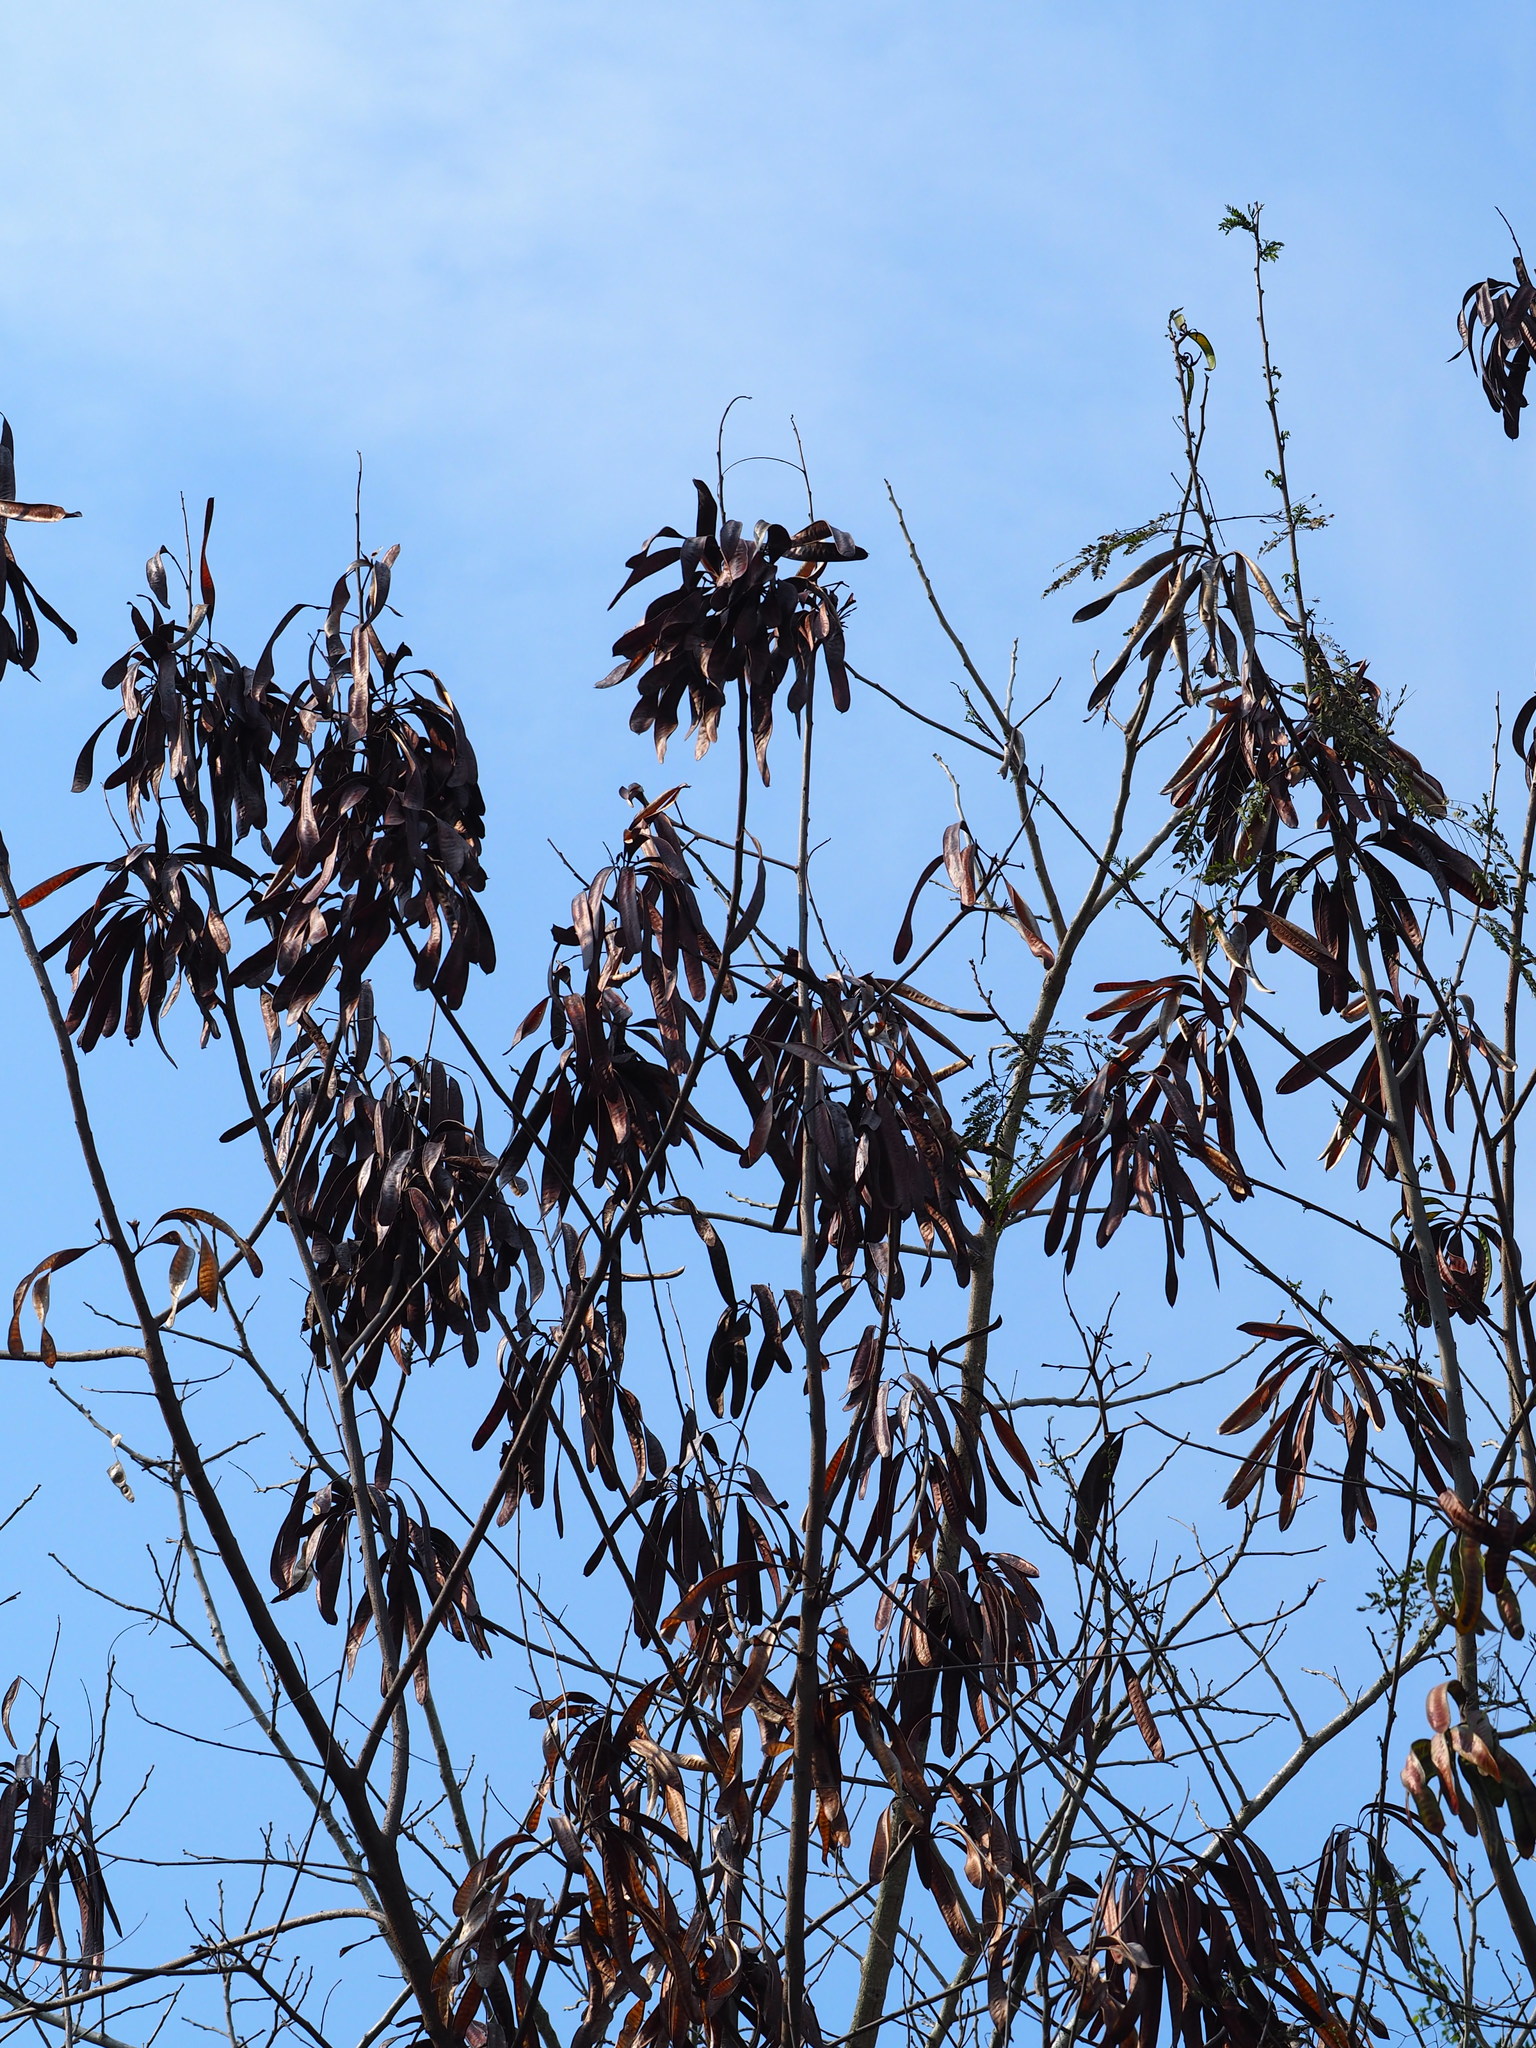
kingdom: Plantae
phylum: Tracheophyta
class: Magnoliopsida
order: Fabales
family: Fabaceae
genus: Leucaena
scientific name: Leucaena leucocephala
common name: White leadtree
